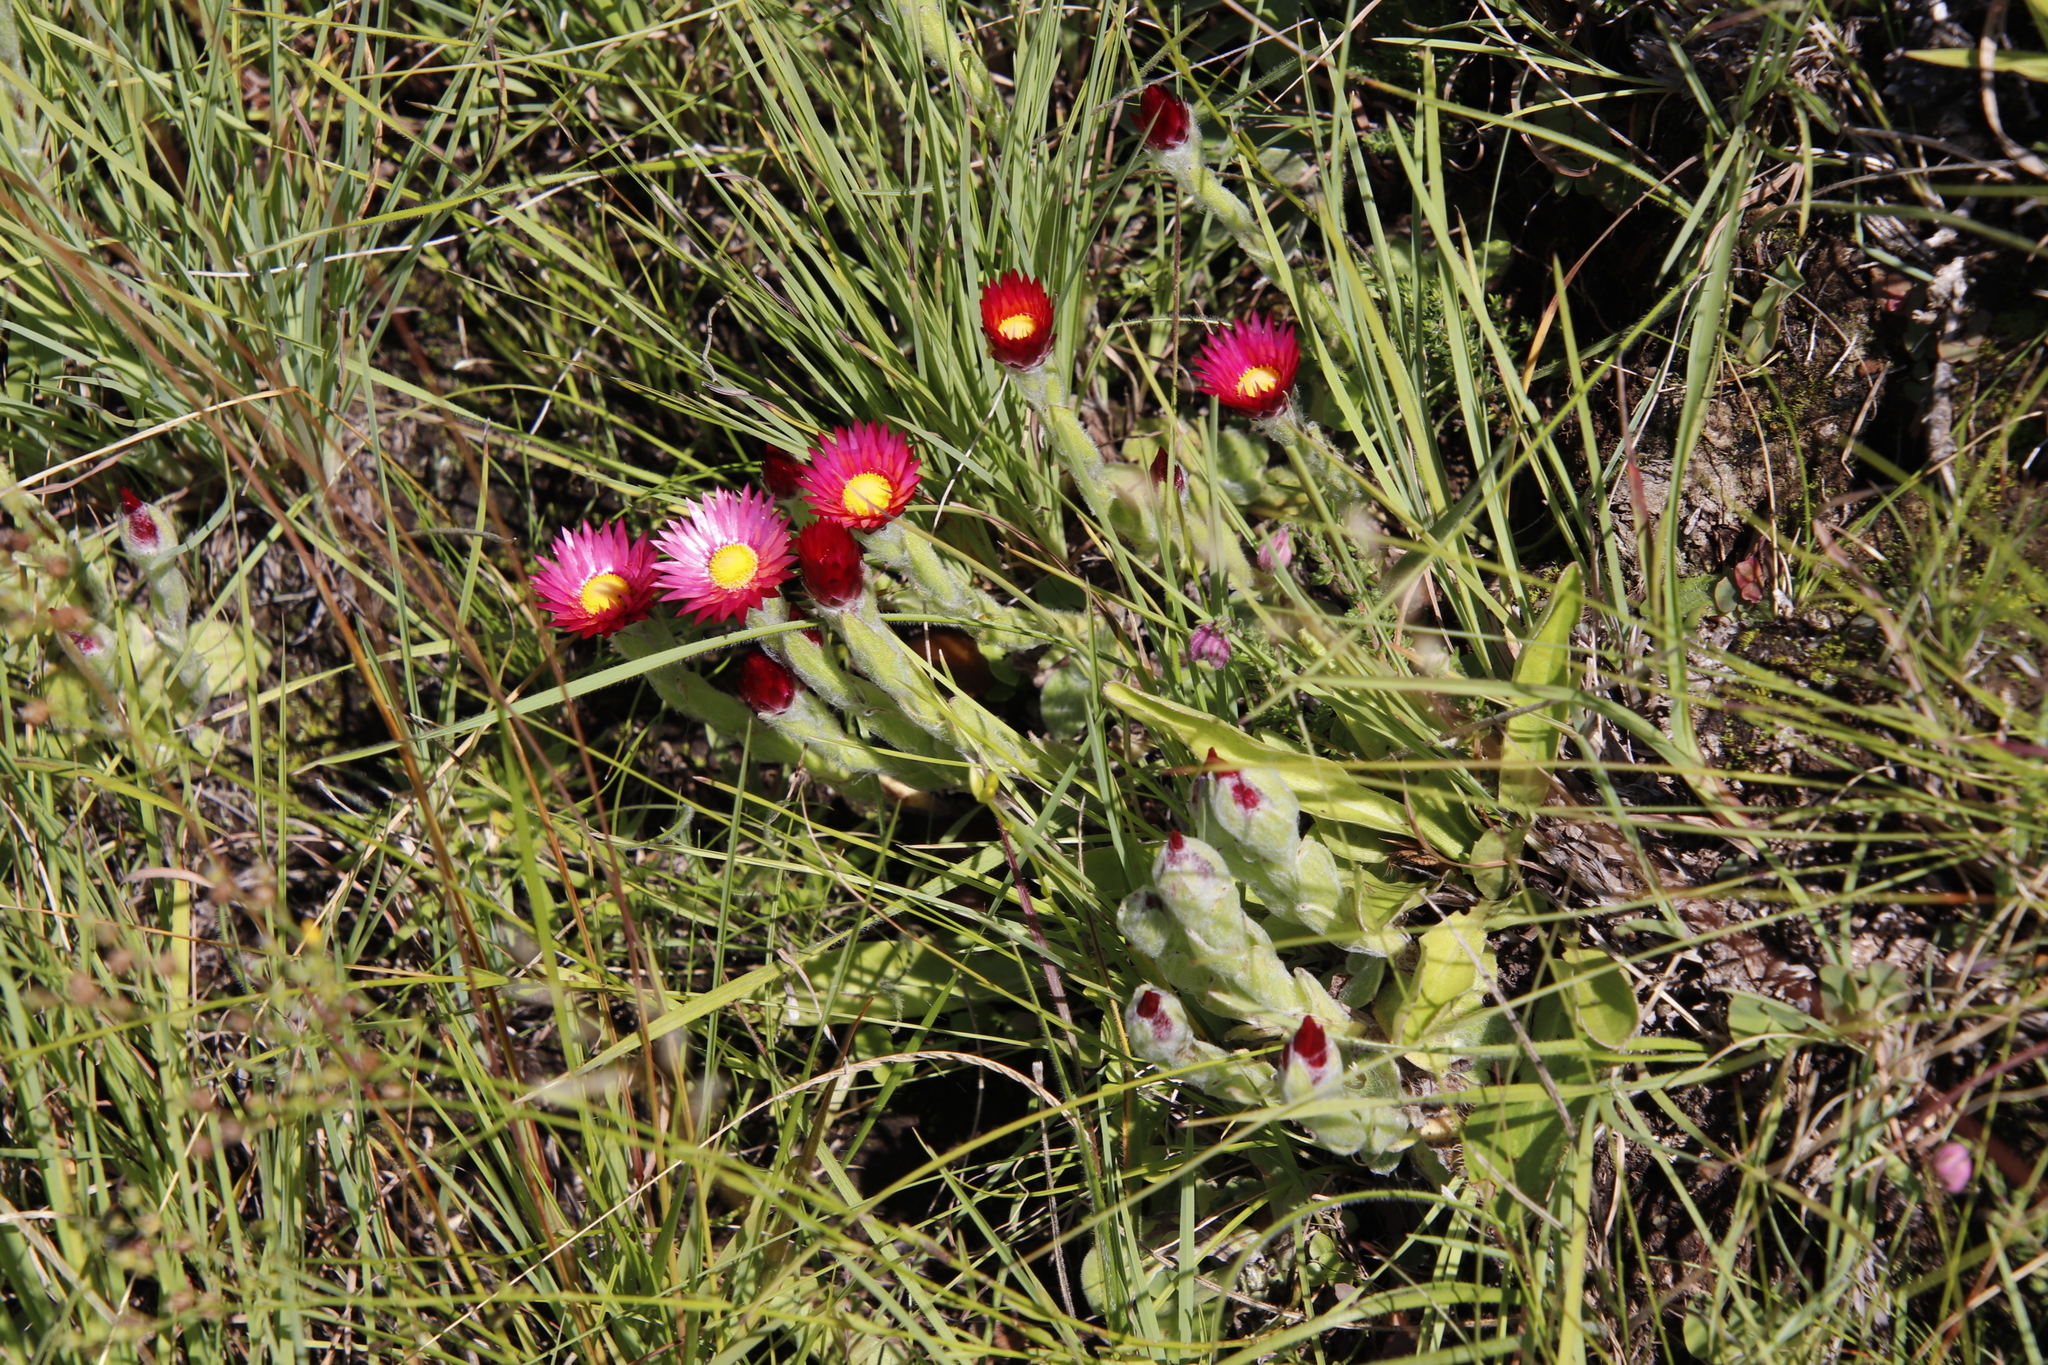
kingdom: Plantae
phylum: Tracheophyta
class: Magnoliopsida
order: Asterales
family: Asteraceae
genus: Helichrysum
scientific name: Helichrysum adenocarpum
